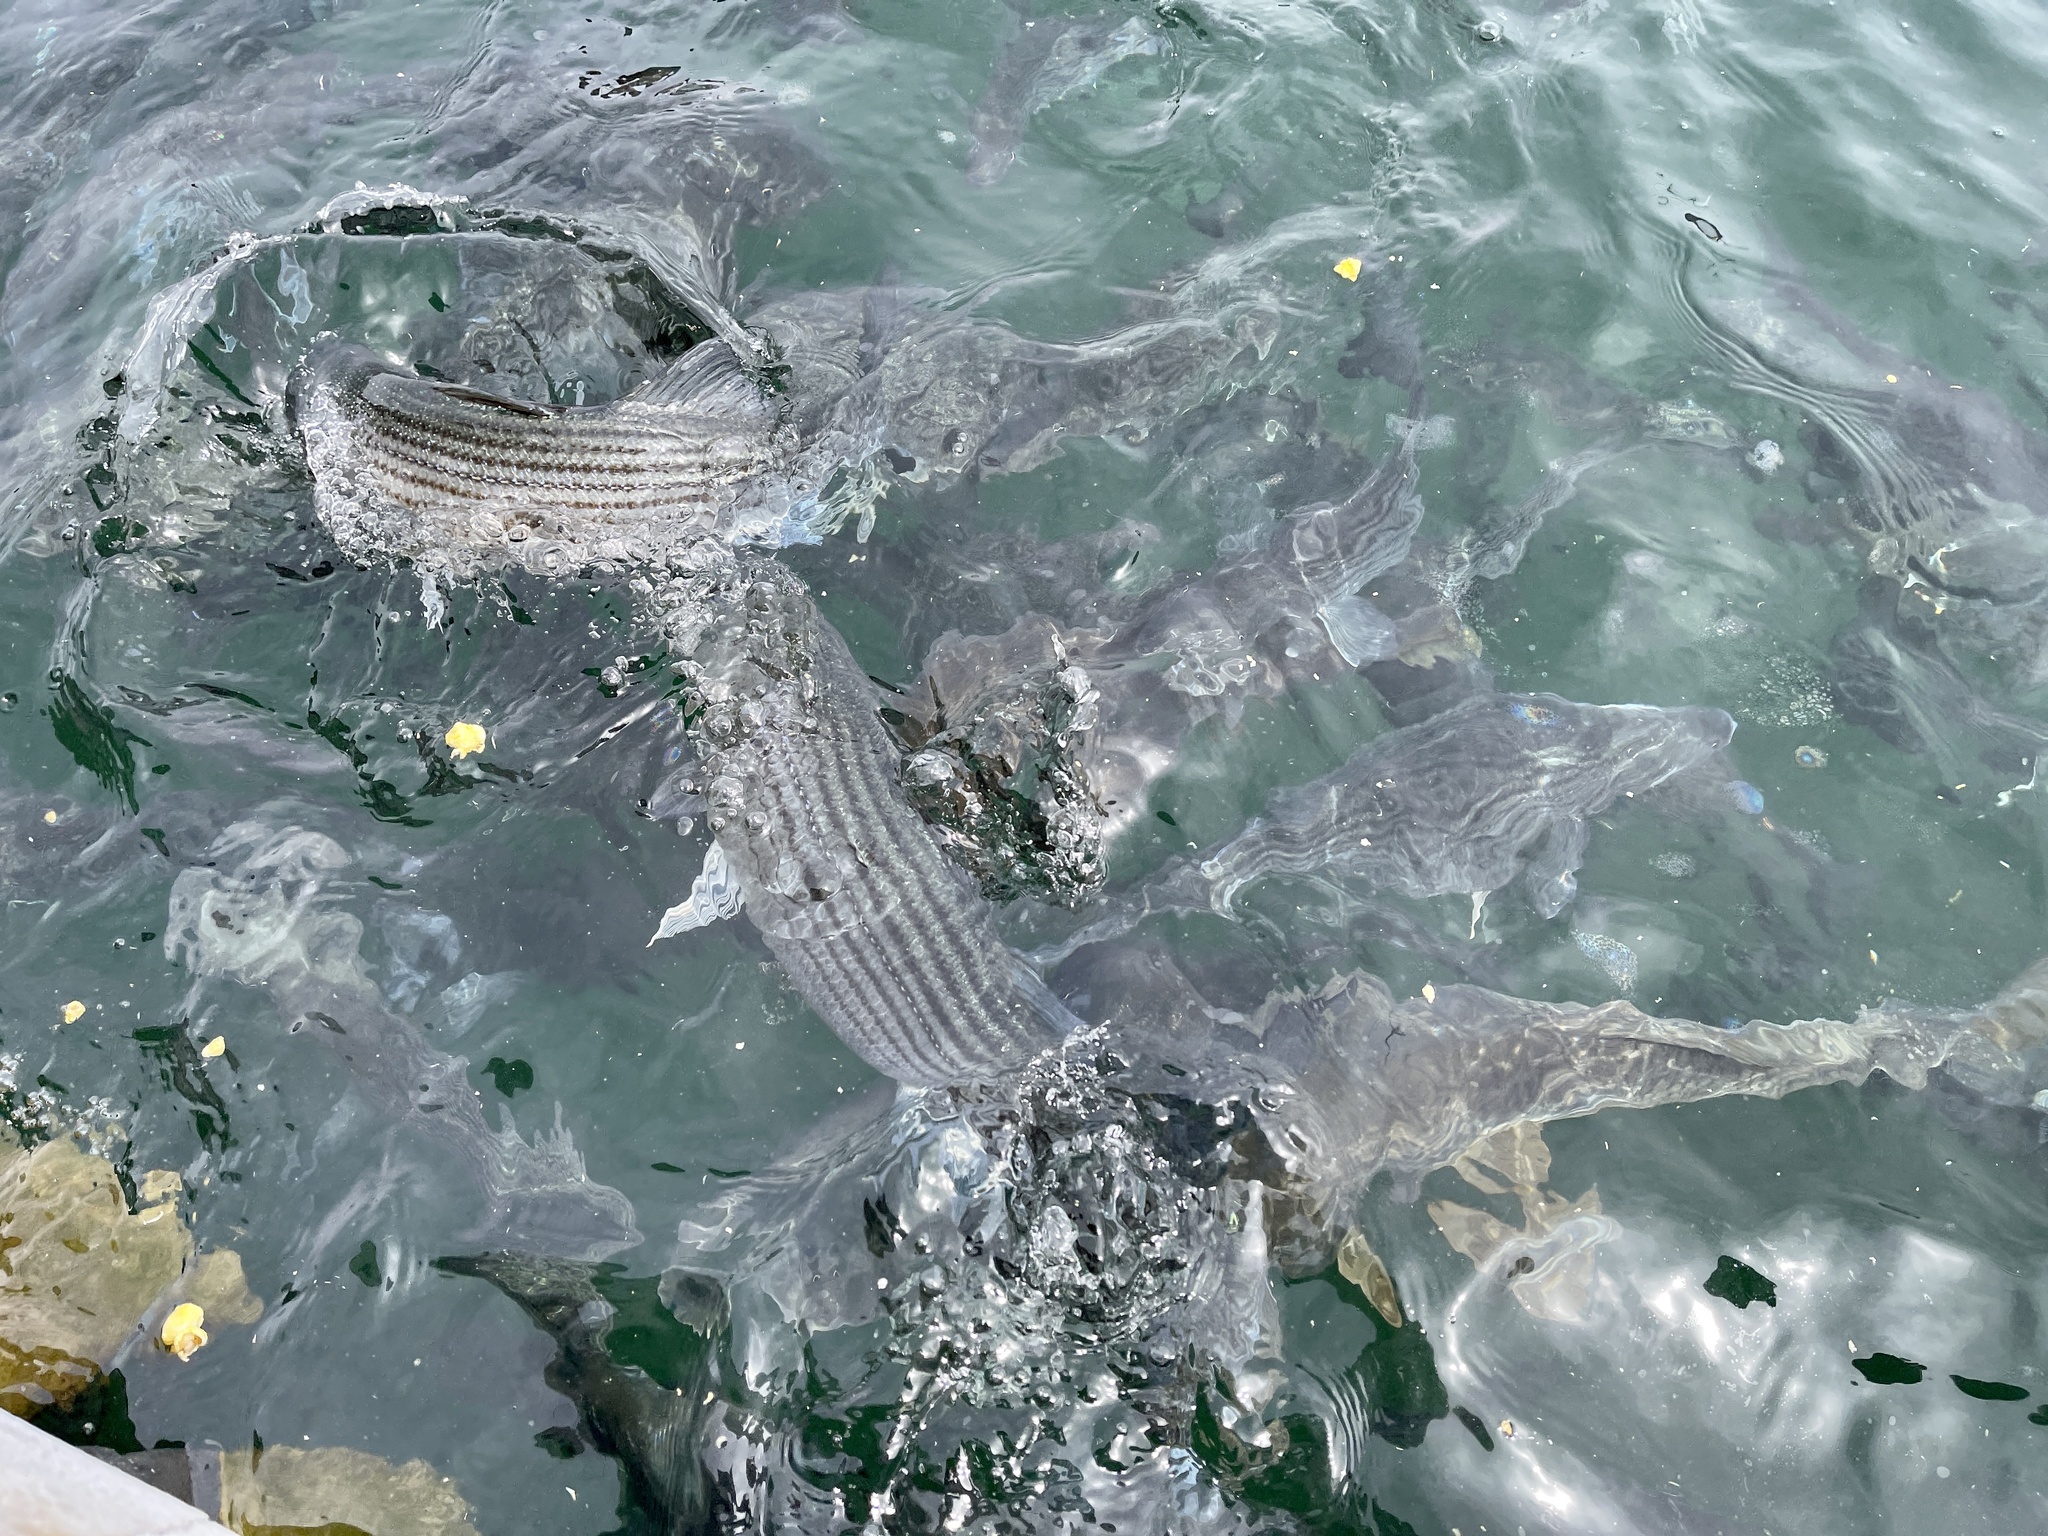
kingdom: Animalia
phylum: Chordata
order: Perciformes
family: Moronidae
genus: Morone
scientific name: Morone saxatilis
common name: Striped bass
